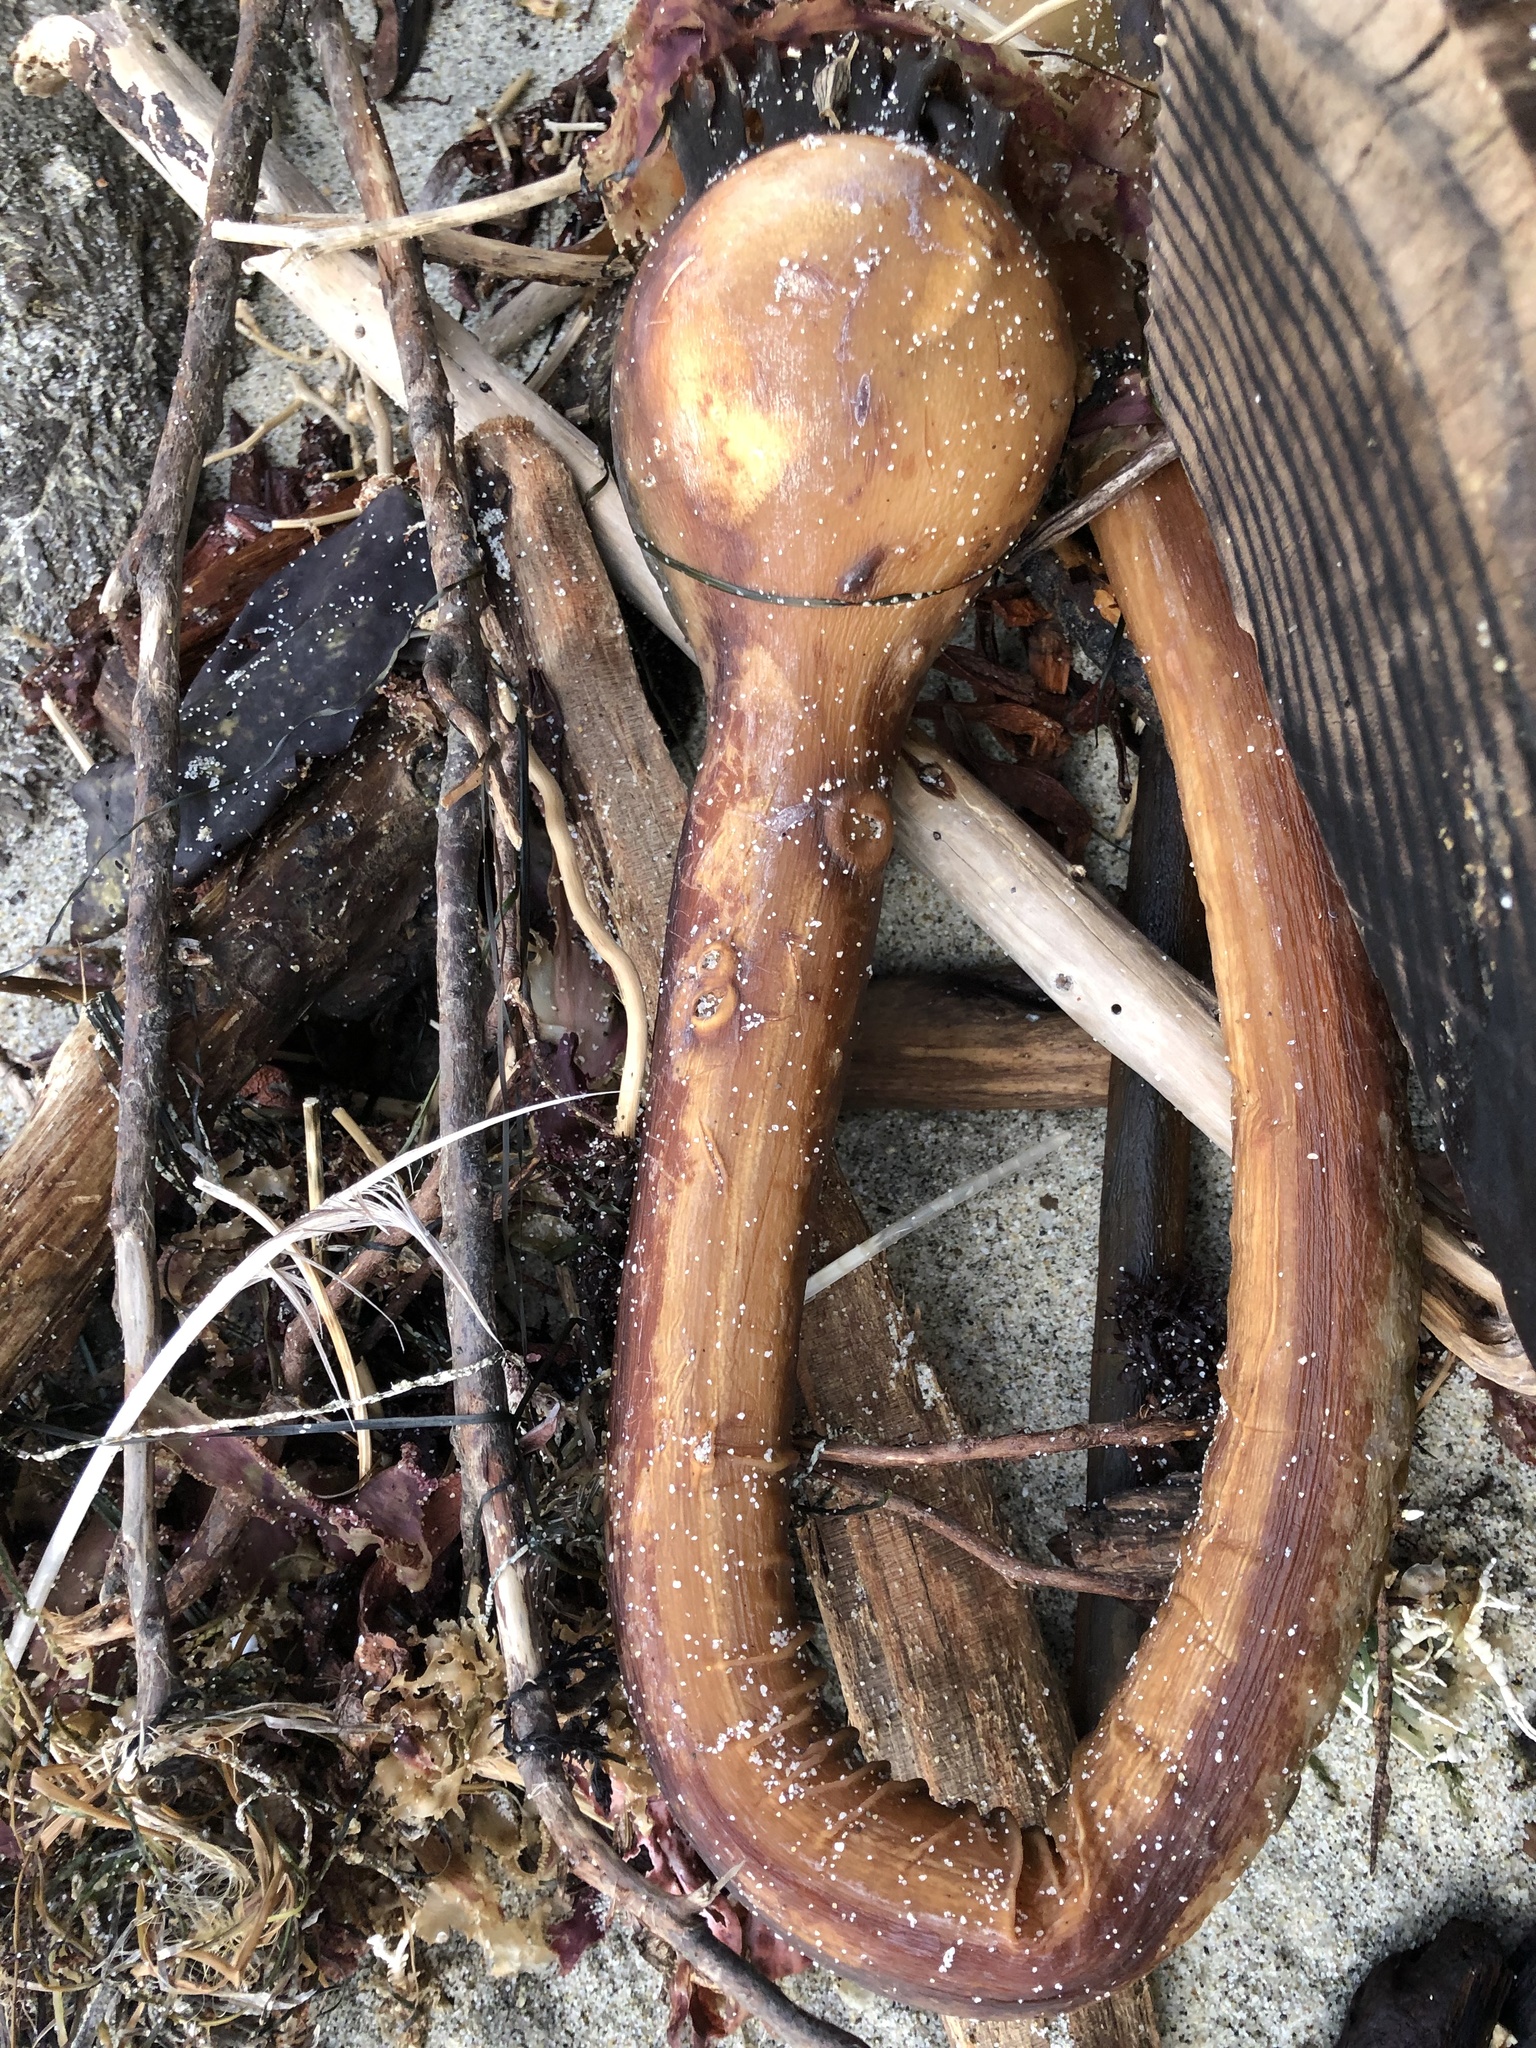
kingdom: Chromista
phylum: Ochrophyta
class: Phaeophyceae
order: Laminariales
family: Laminariaceae
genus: Nereocystis
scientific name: Nereocystis luetkeana
